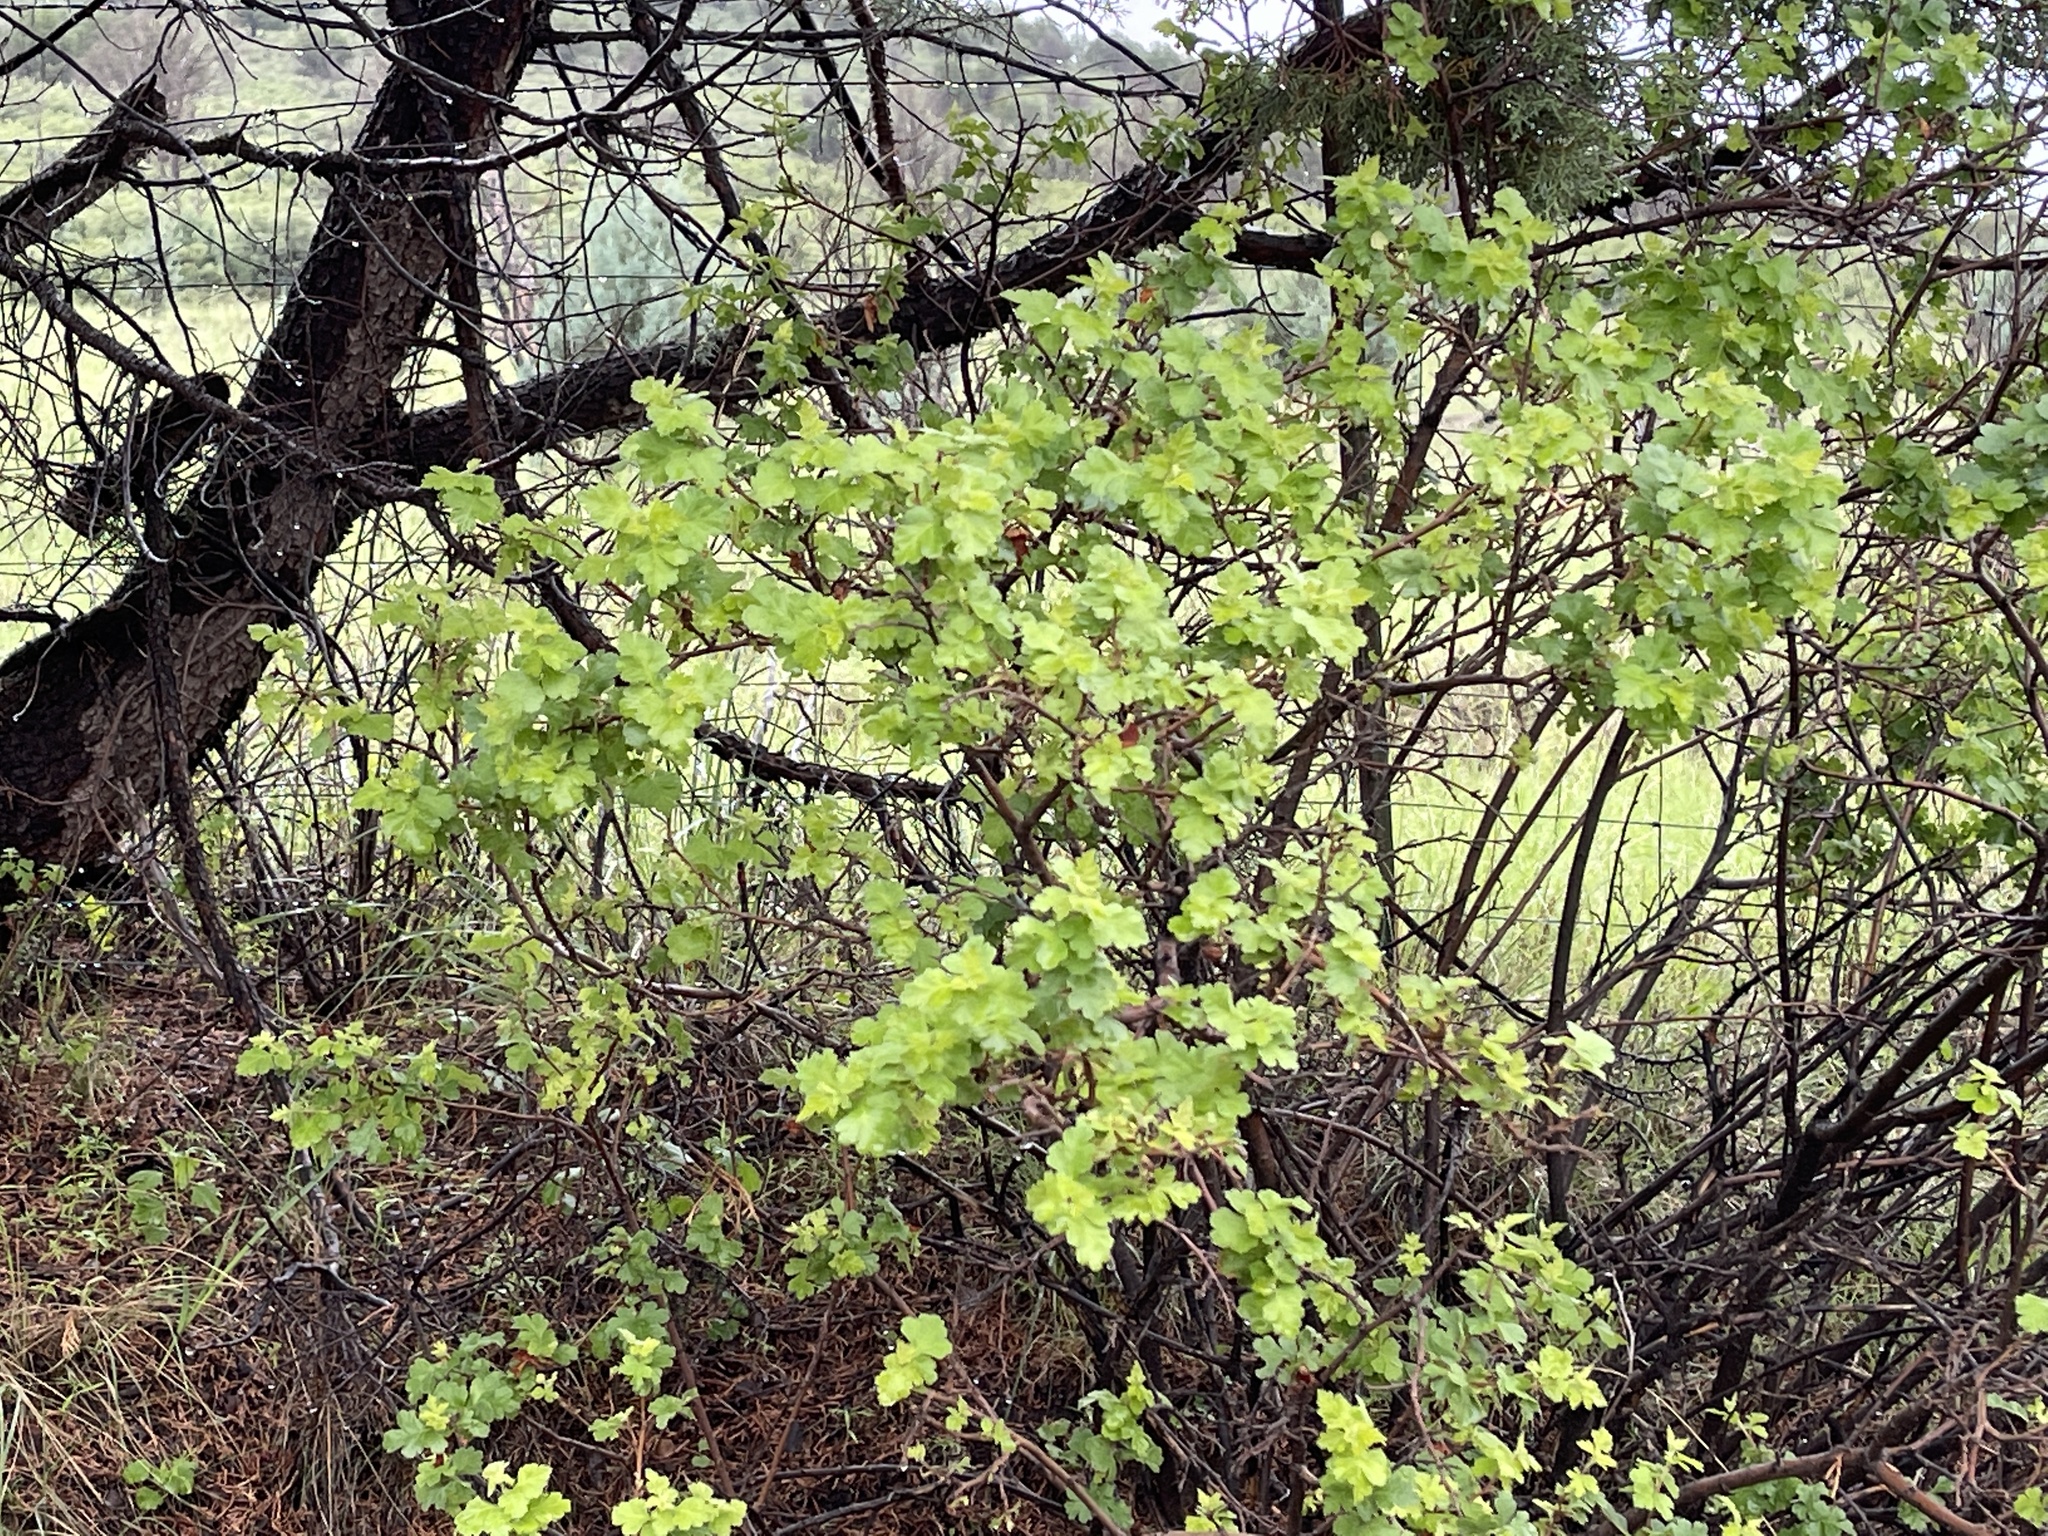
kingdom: Plantae
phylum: Tracheophyta
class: Magnoliopsida
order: Sapindales
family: Anacardiaceae
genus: Rhus
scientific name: Rhus trilobata
